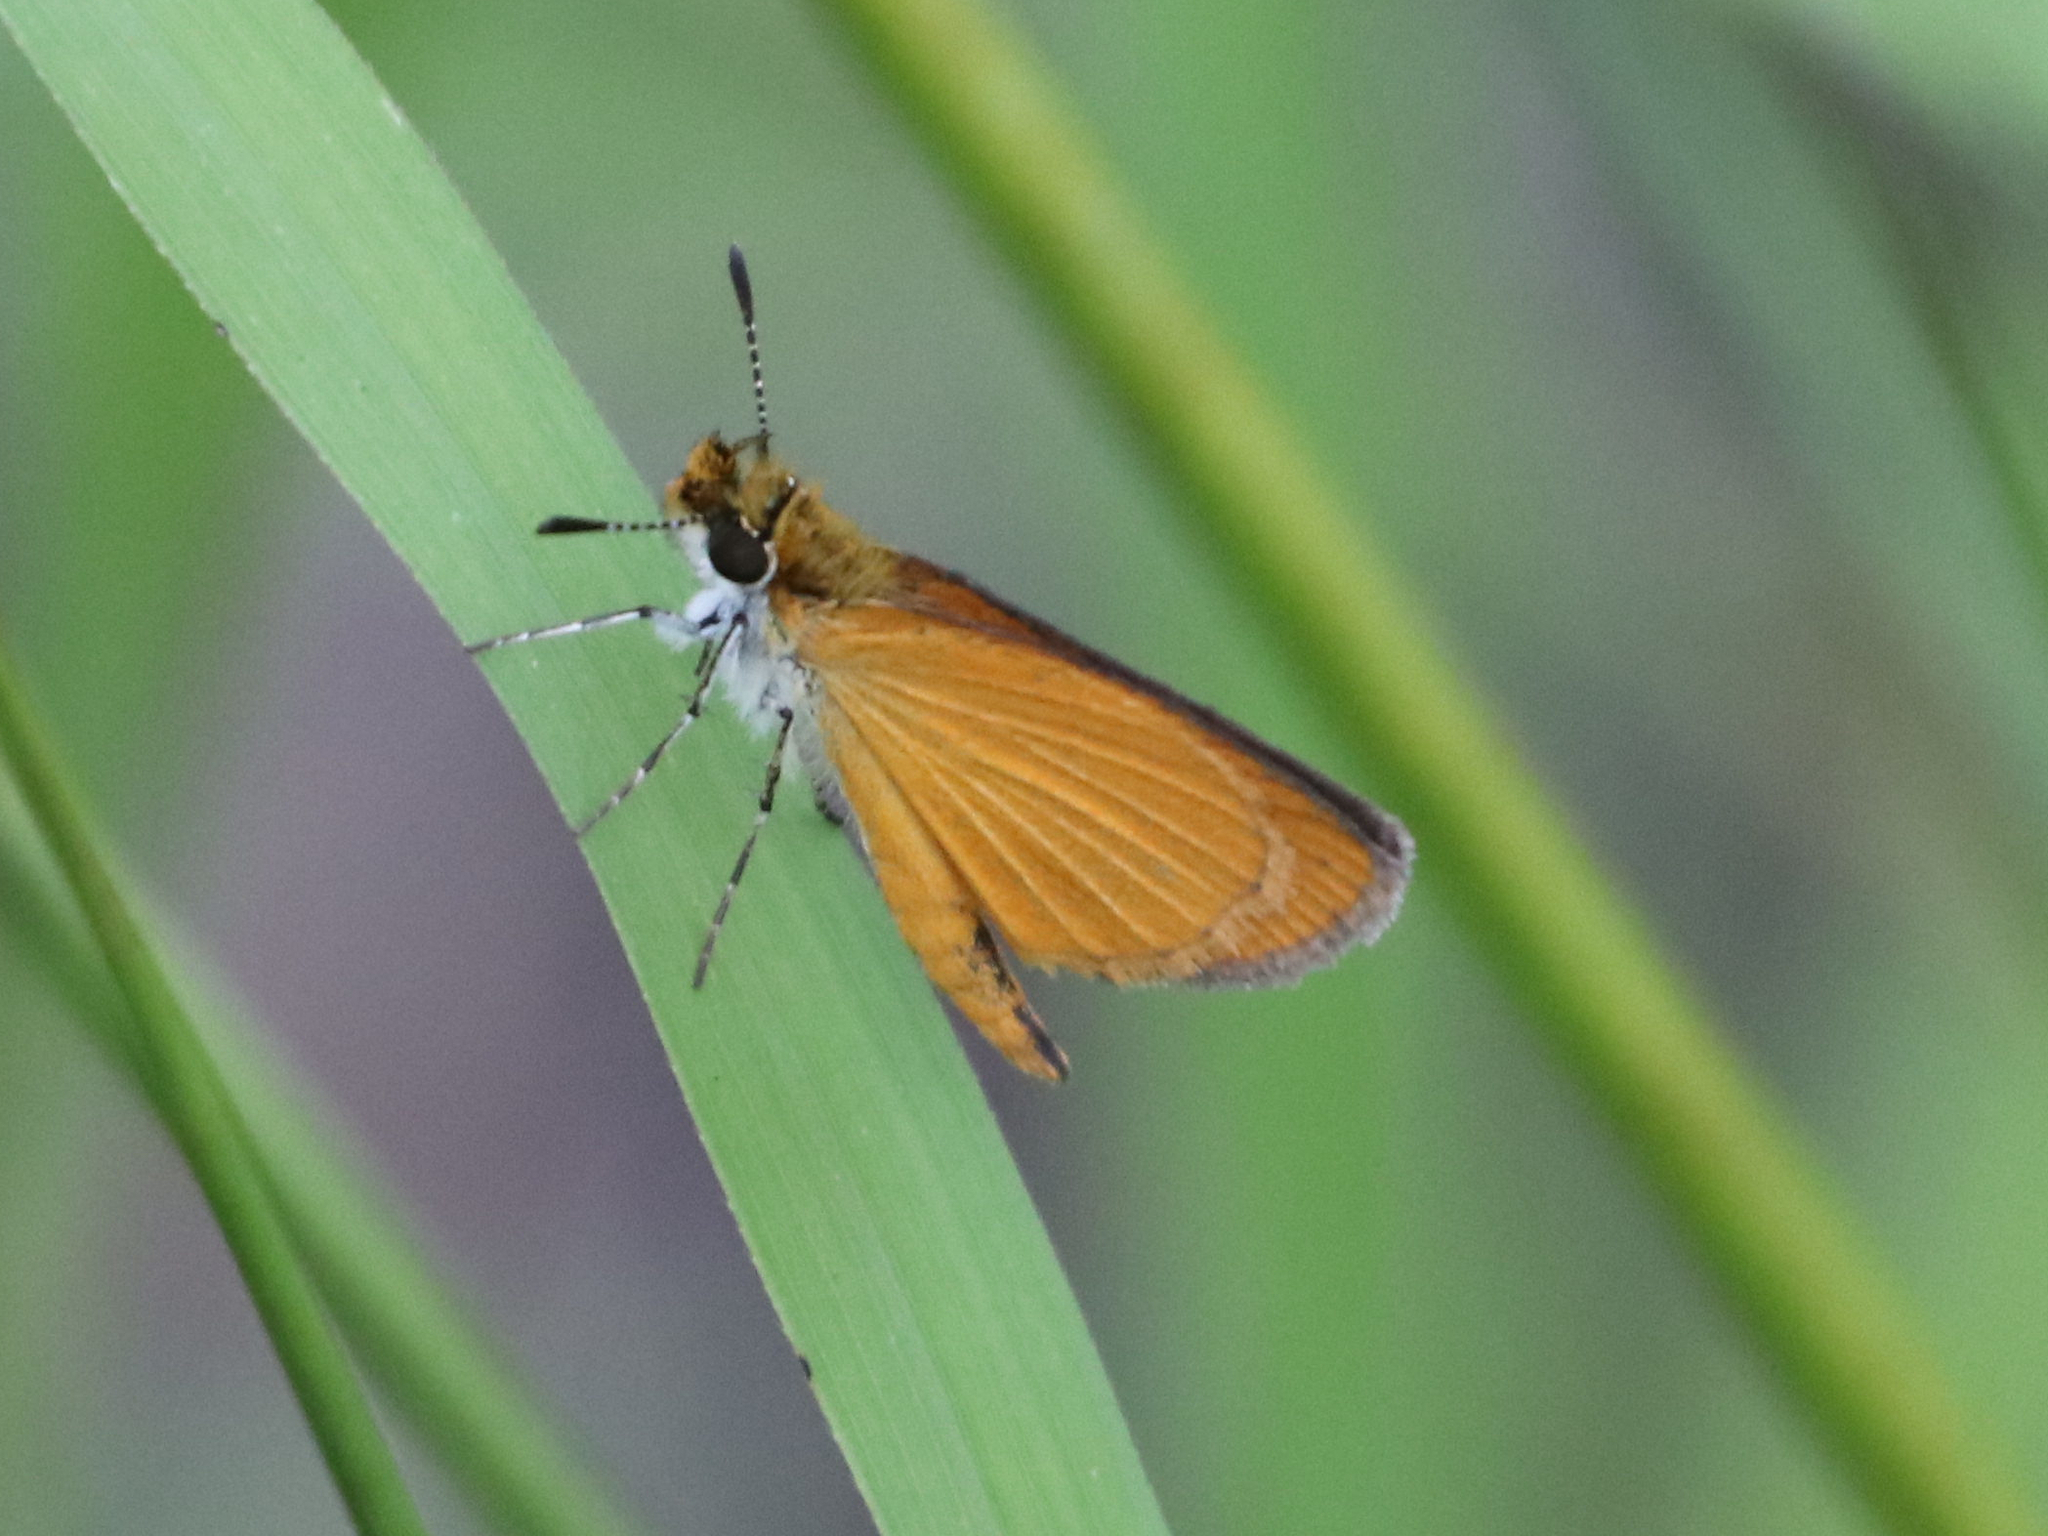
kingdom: Animalia
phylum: Arthropoda
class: Insecta
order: Lepidoptera
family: Hesperiidae
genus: Ancyloxypha
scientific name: Ancyloxypha numitor
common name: Least skipper
